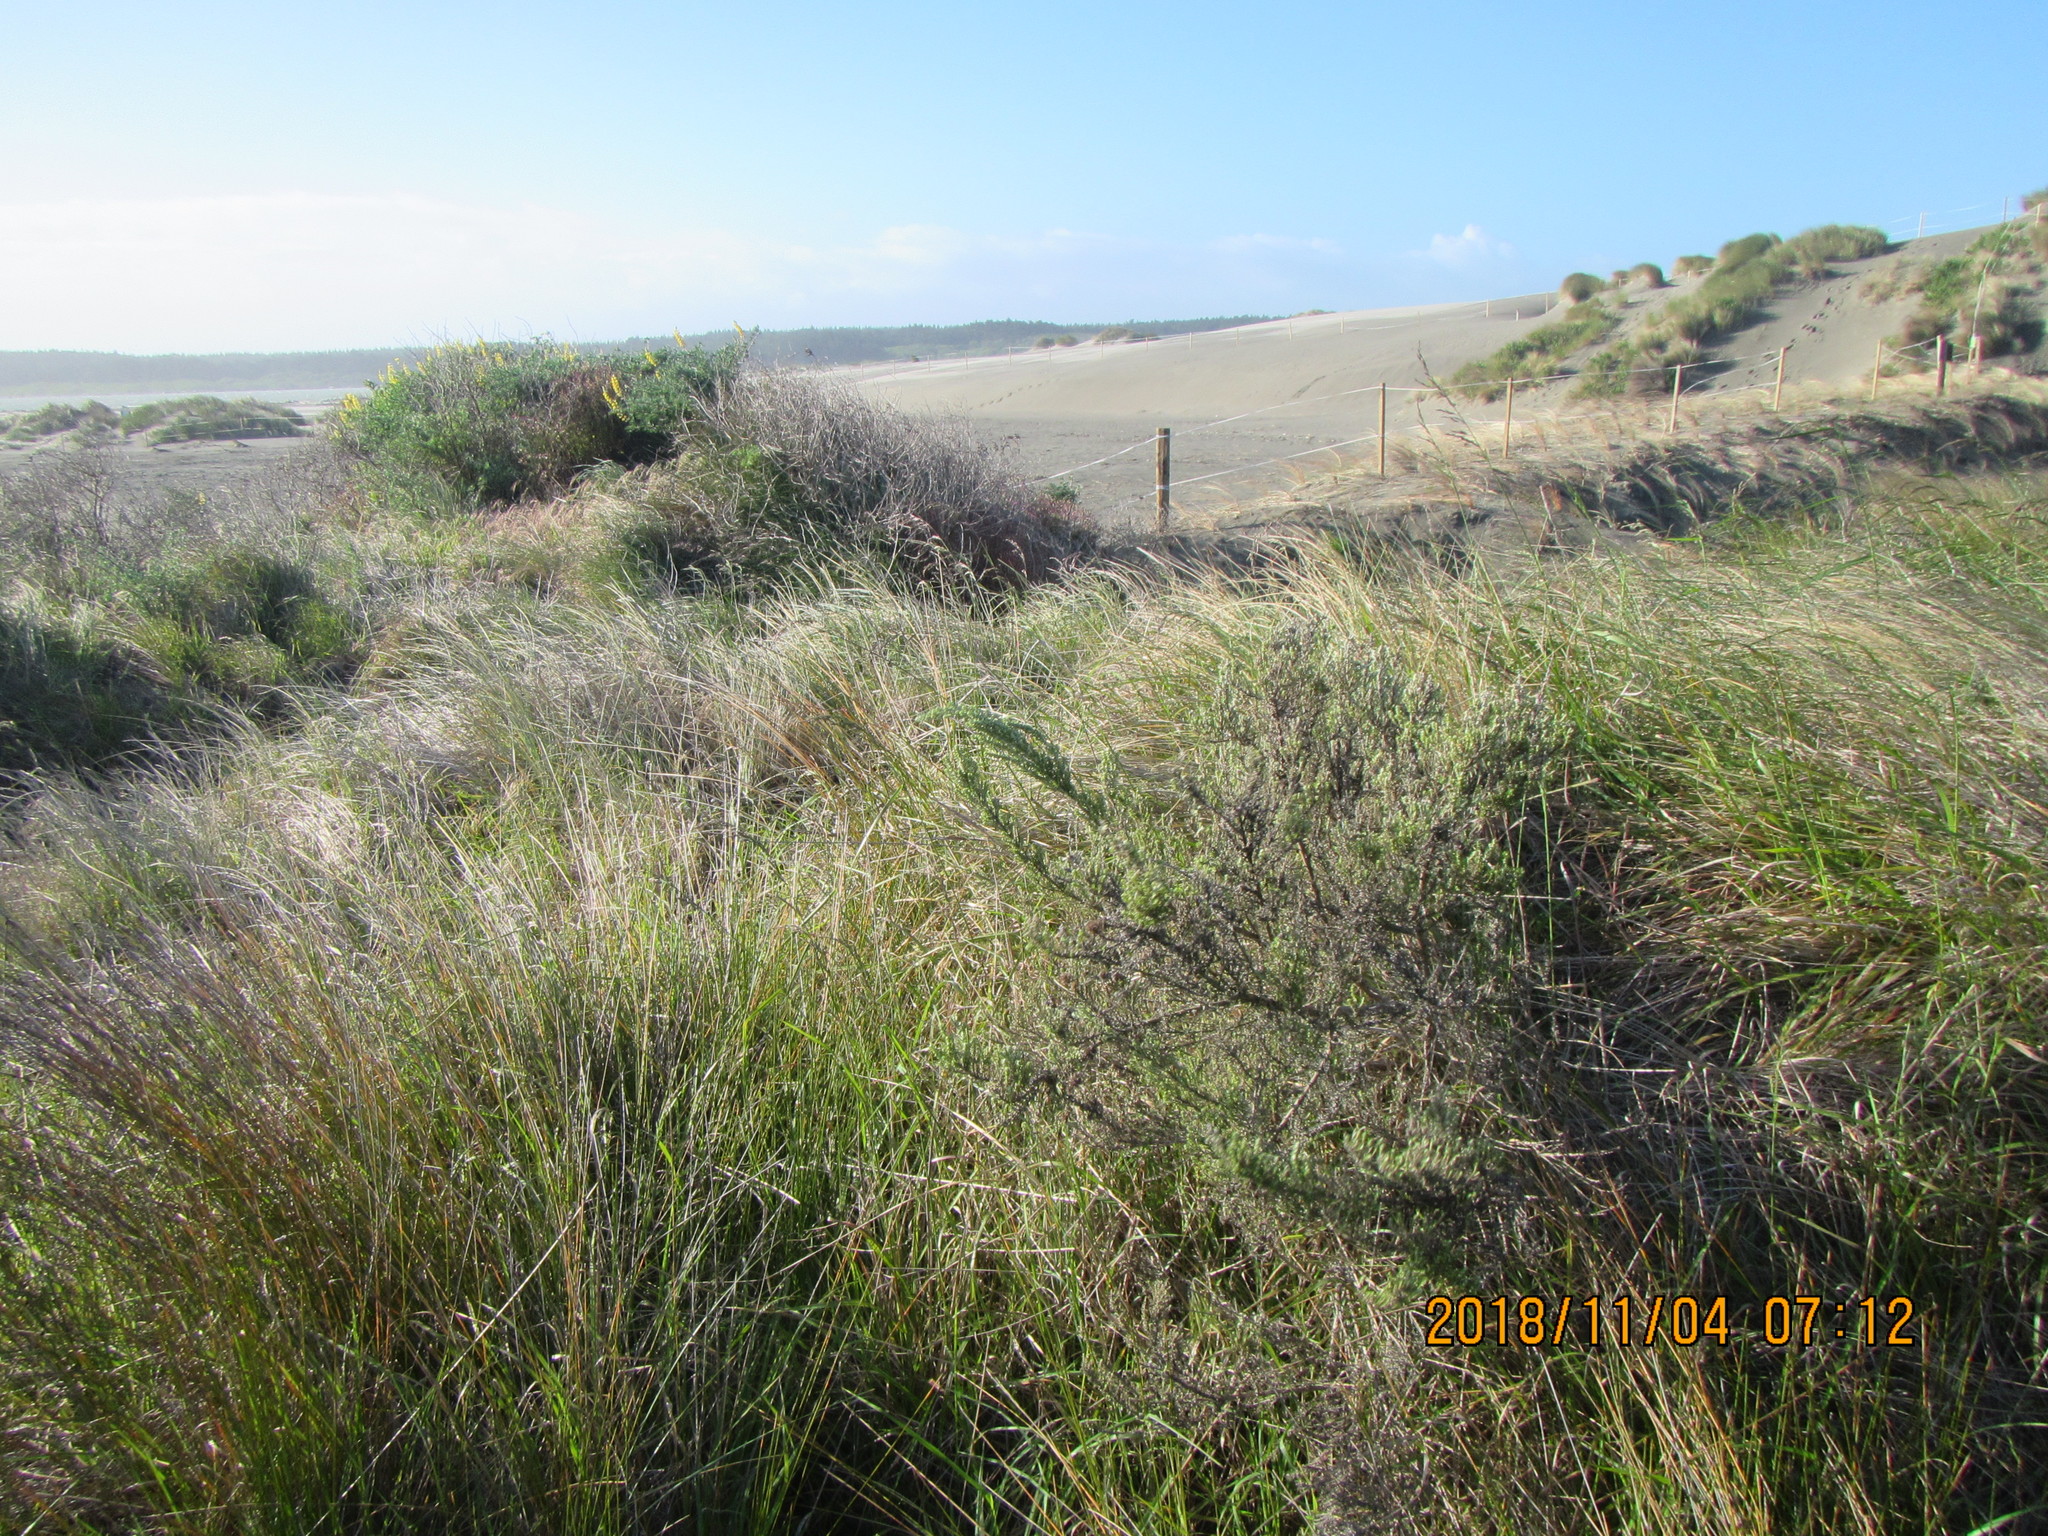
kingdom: Plantae
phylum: Tracheophyta
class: Magnoliopsida
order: Asterales
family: Asteraceae
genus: Ozothamnus
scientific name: Ozothamnus leptophyllus
